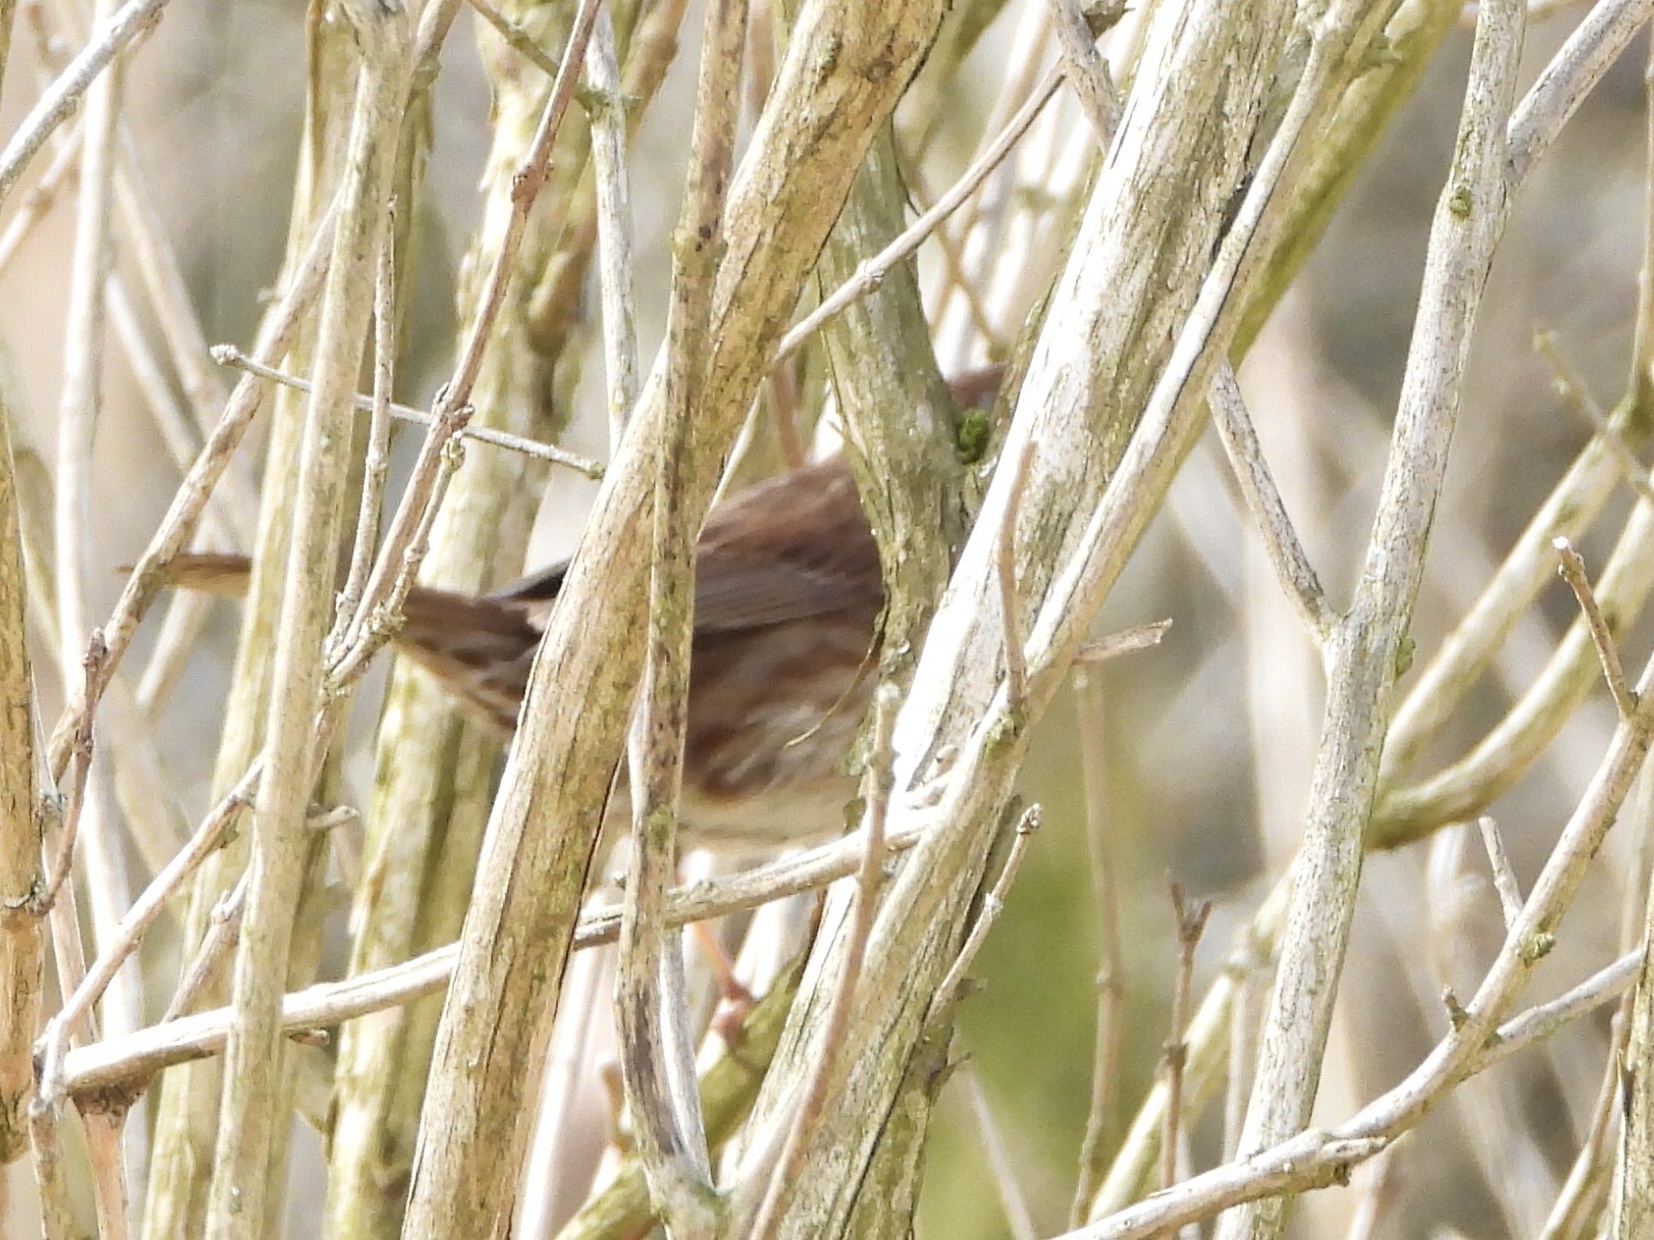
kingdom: Animalia
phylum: Chordata
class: Aves
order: Passeriformes
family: Passerellidae
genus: Melospiza
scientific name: Melospiza melodia
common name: Song sparrow
